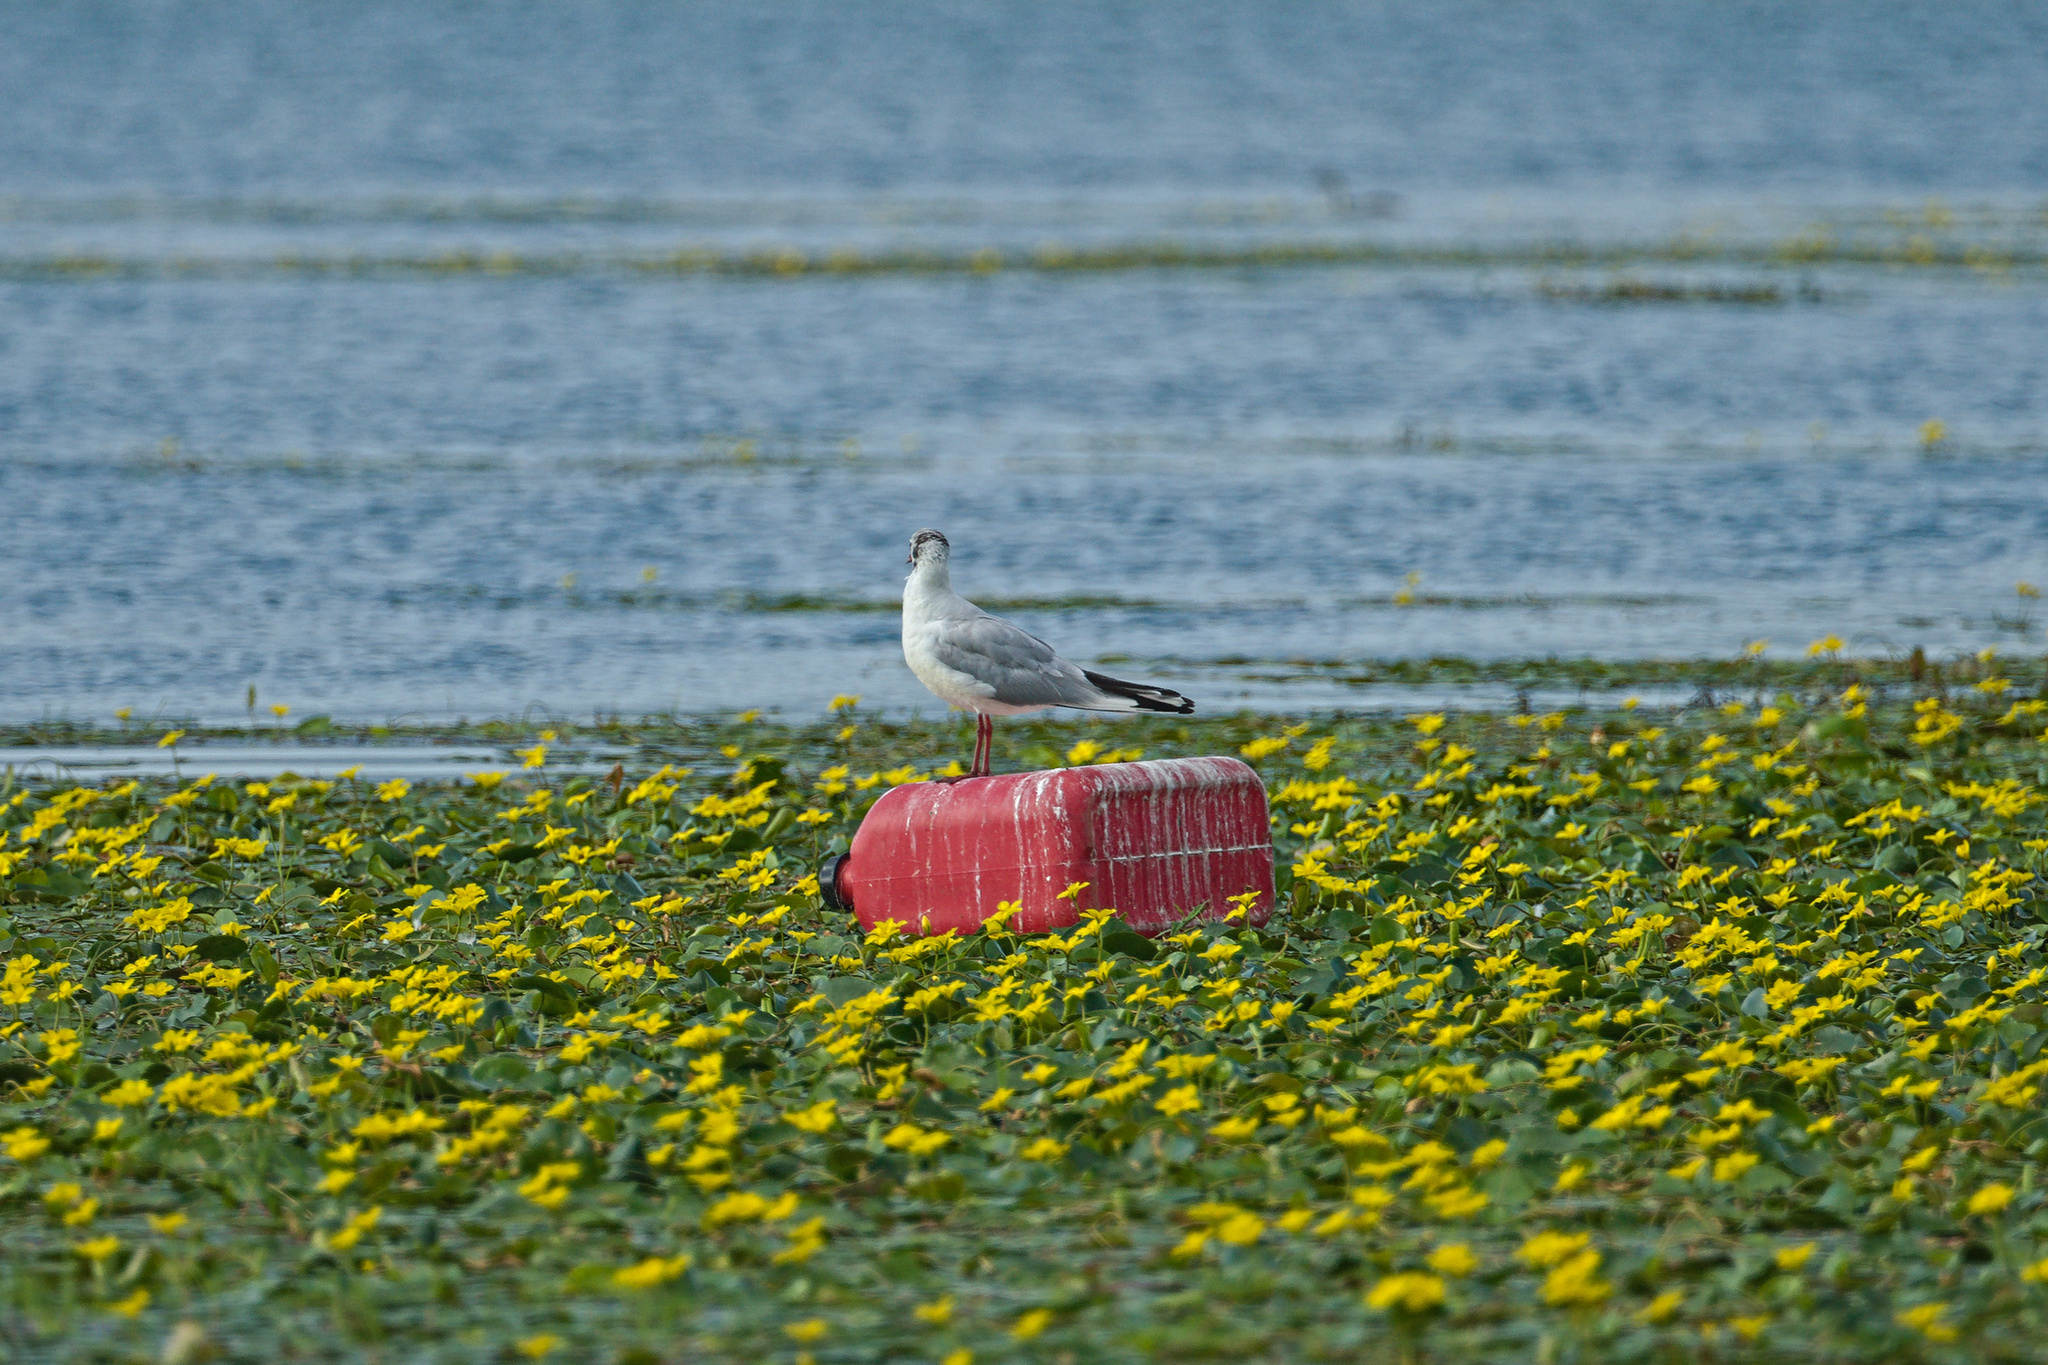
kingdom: Animalia
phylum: Chordata
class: Aves
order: Charadriiformes
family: Laridae
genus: Chroicocephalus
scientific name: Chroicocephalus ridibundus
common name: Black-headed gull
